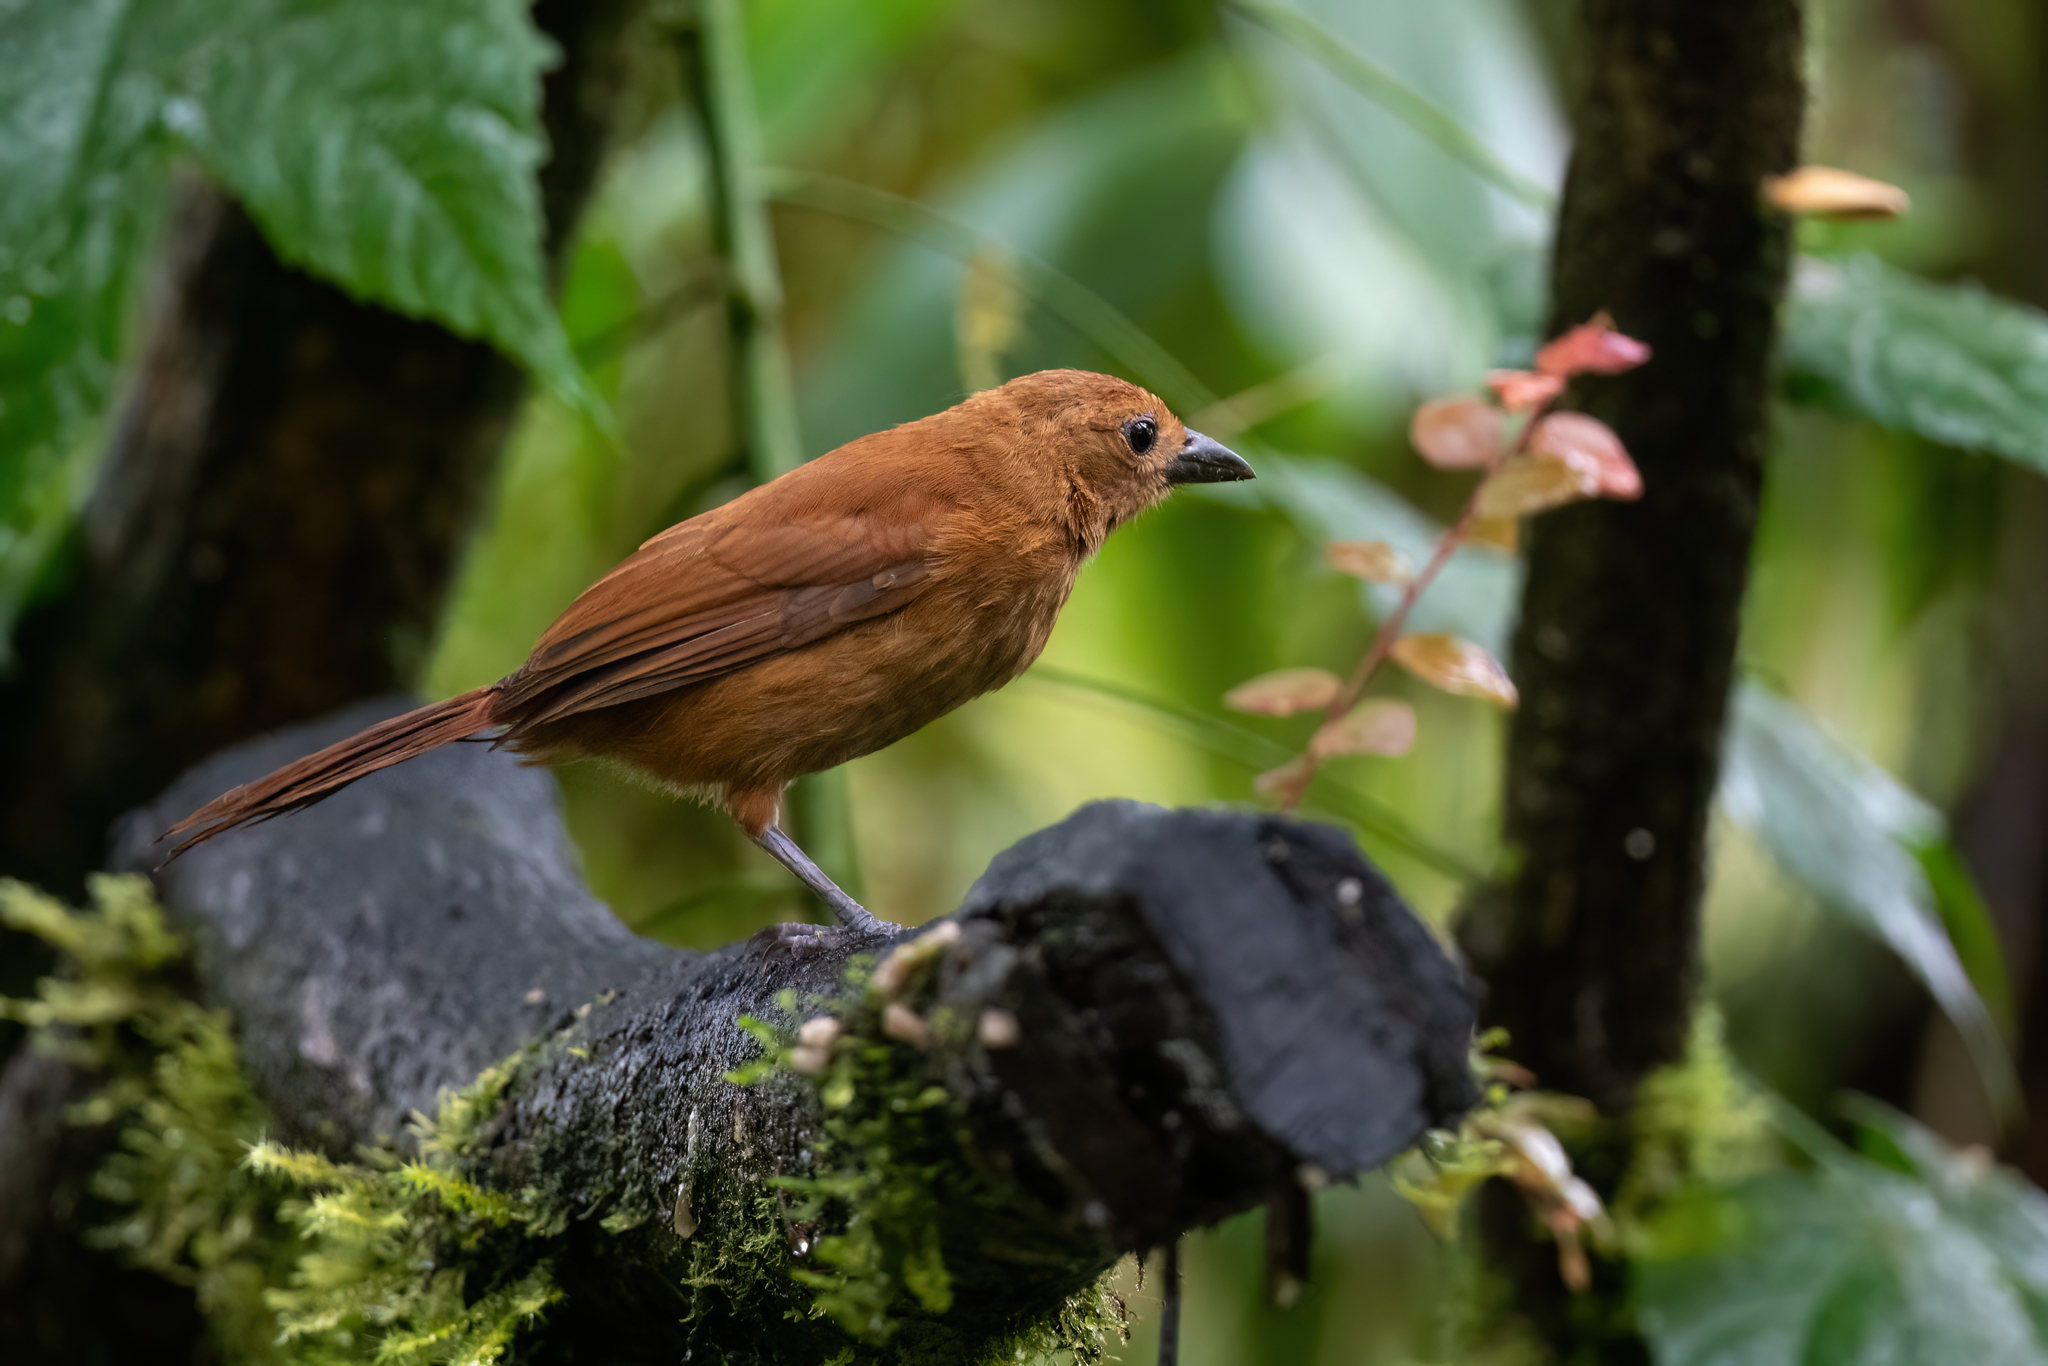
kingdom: Animalia
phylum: Chordata
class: Aves
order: Passeriformes
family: Thraupidae
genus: Tachyphonus
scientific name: Tachyphonus rufus
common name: White-lined tanager
